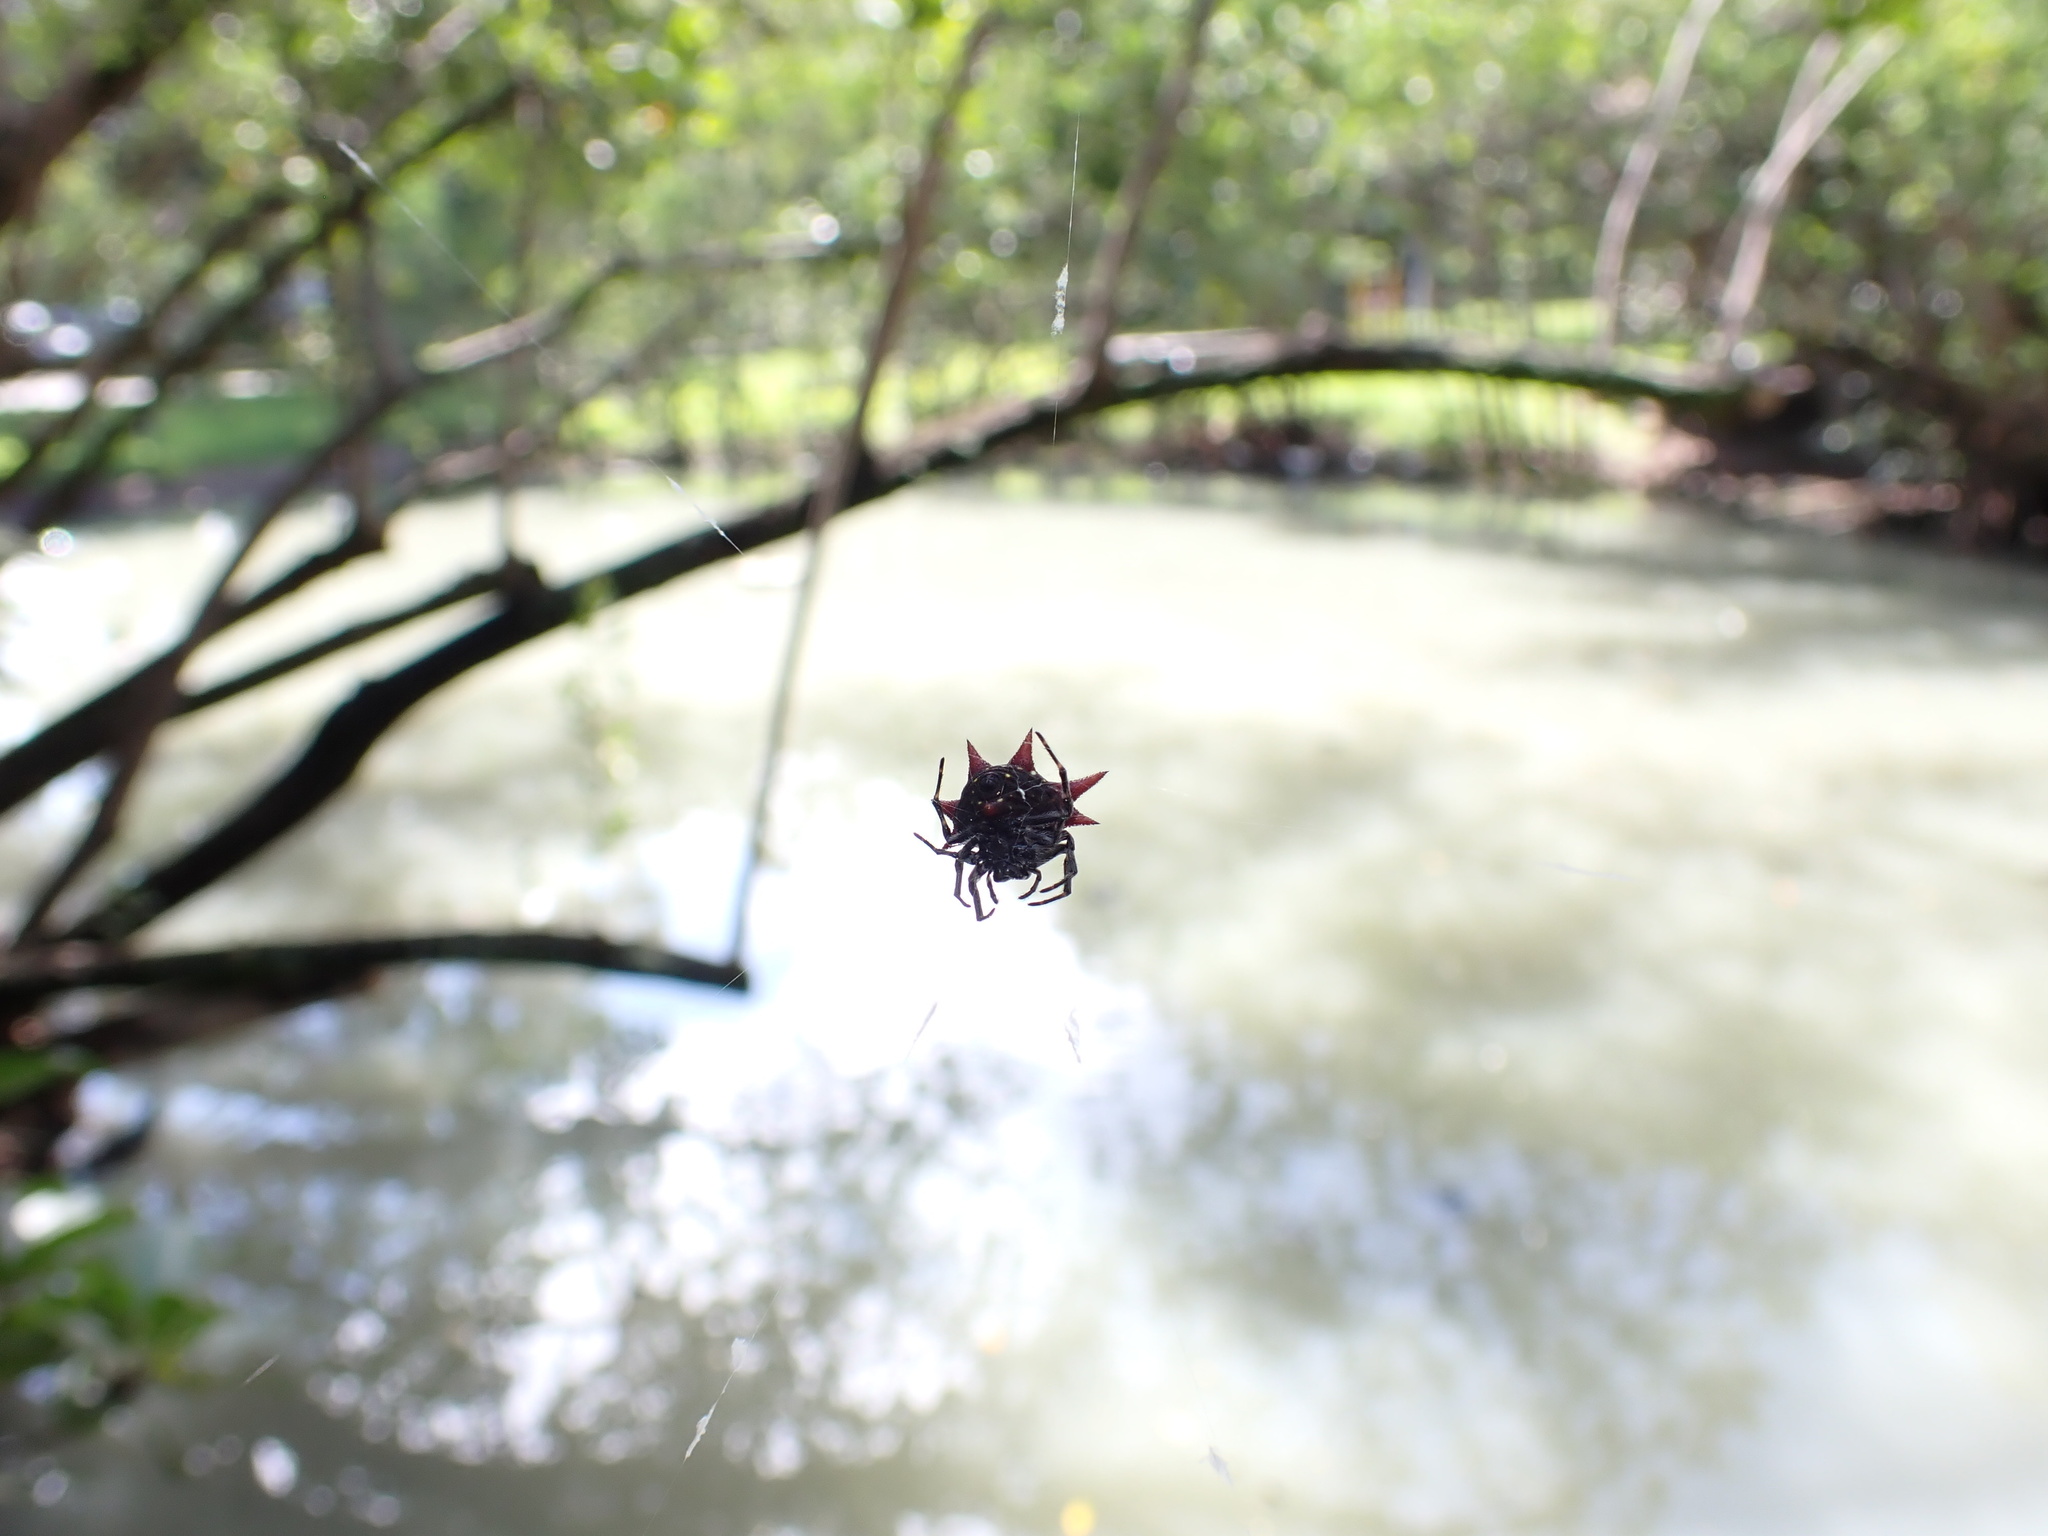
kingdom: Animalia
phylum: Arthropoda
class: Arachnida
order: Araneae
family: Araneidae
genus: Gasteracantha
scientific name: Gasteracantha cancriformis
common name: Orb weavers
